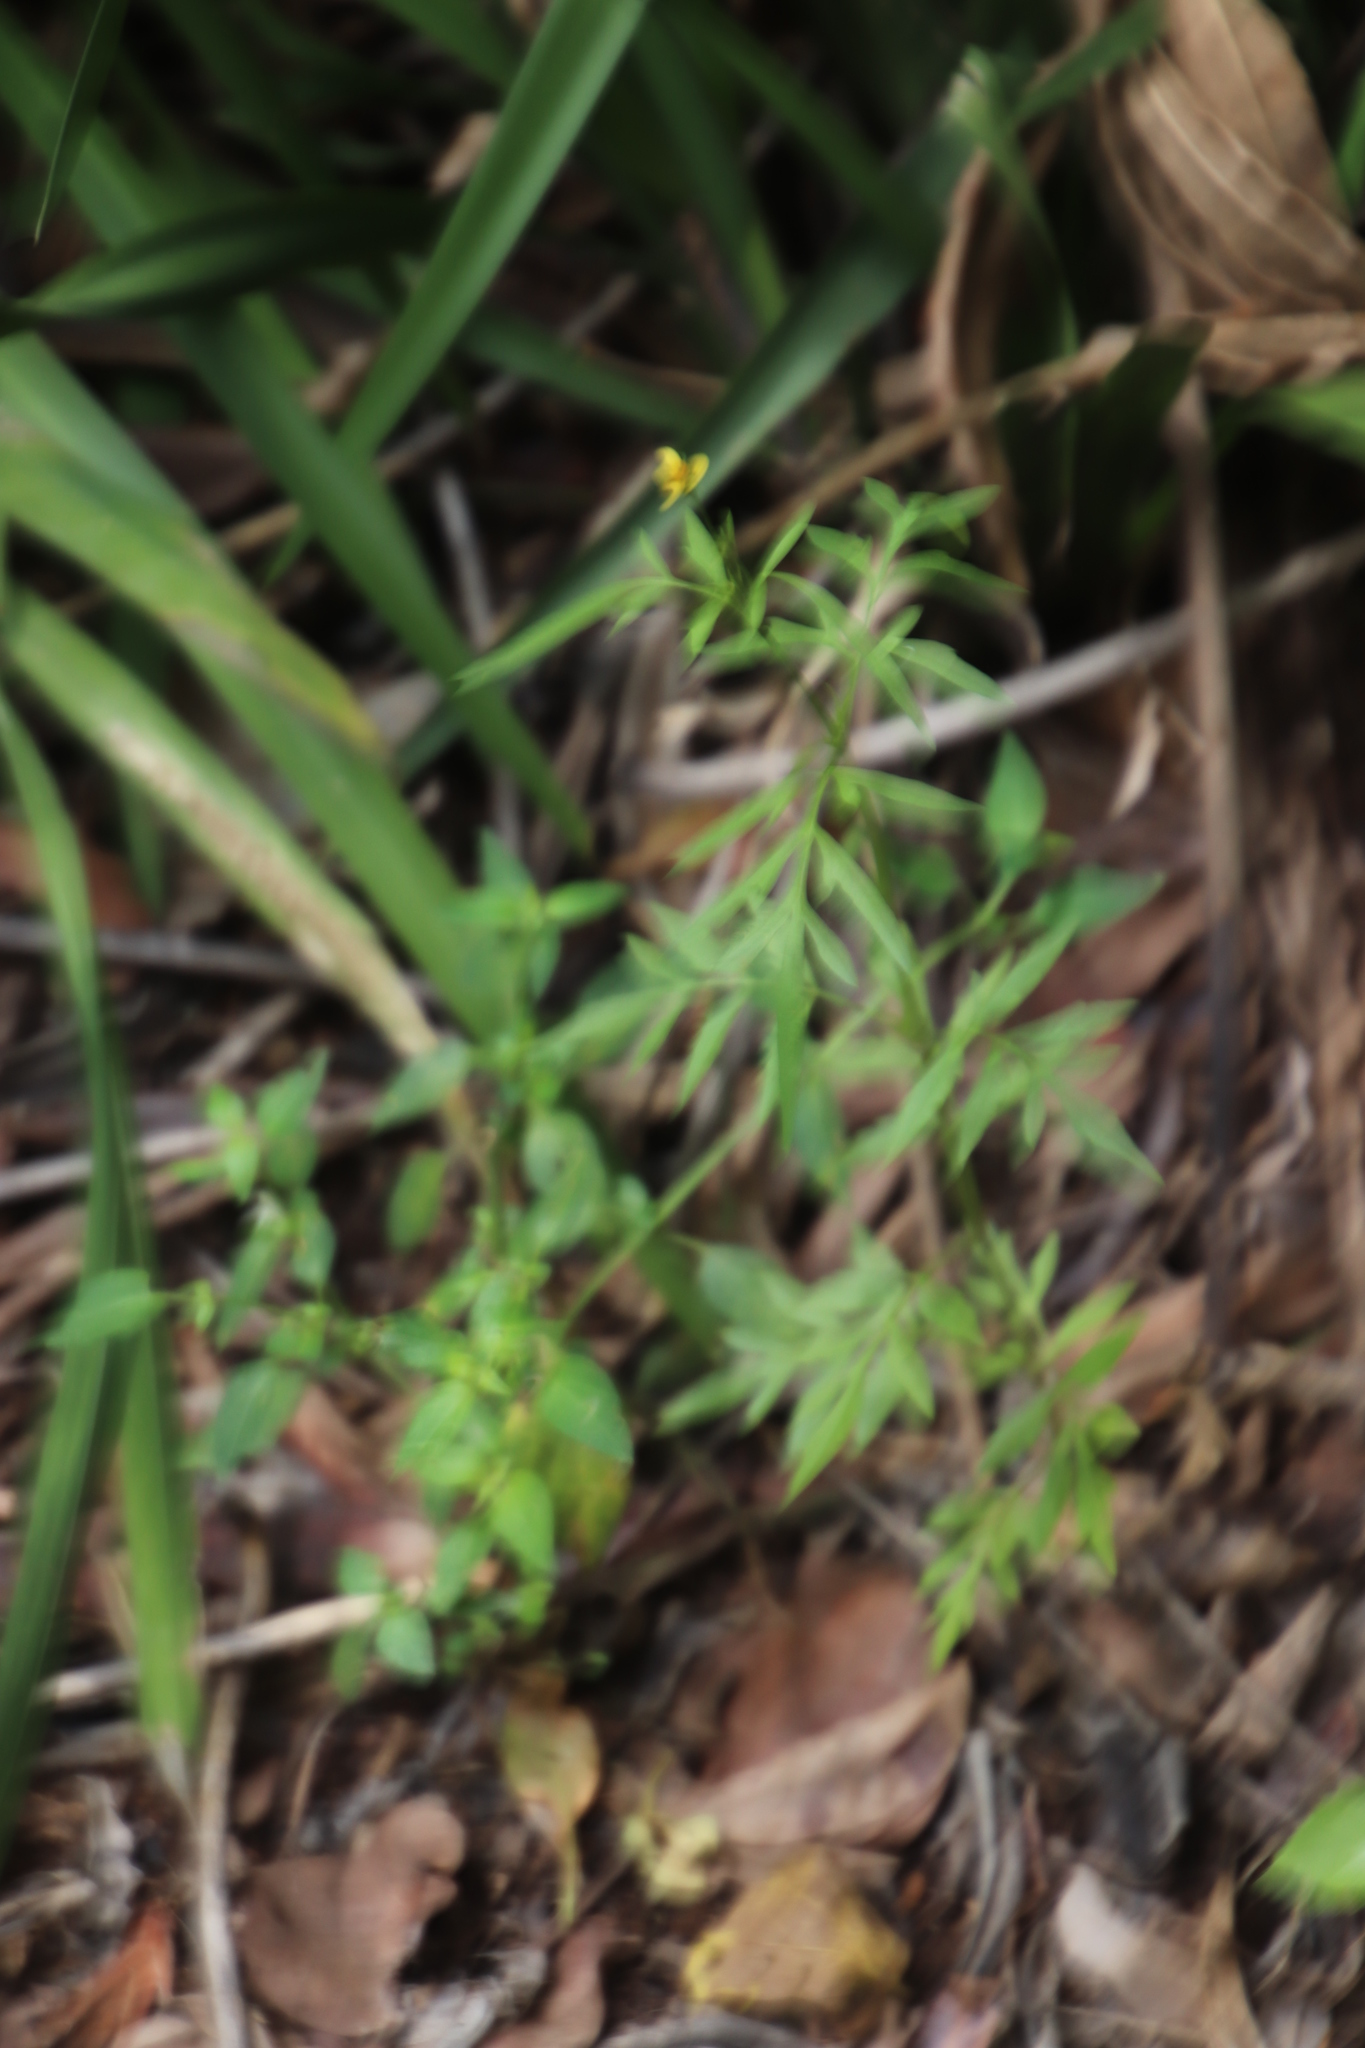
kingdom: Plantae
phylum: Tracheophyta
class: Magnoliopsida
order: Asterales
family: Asteraceae
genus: Bidens
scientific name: Bidens bipinnata
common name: Spanish-needles
